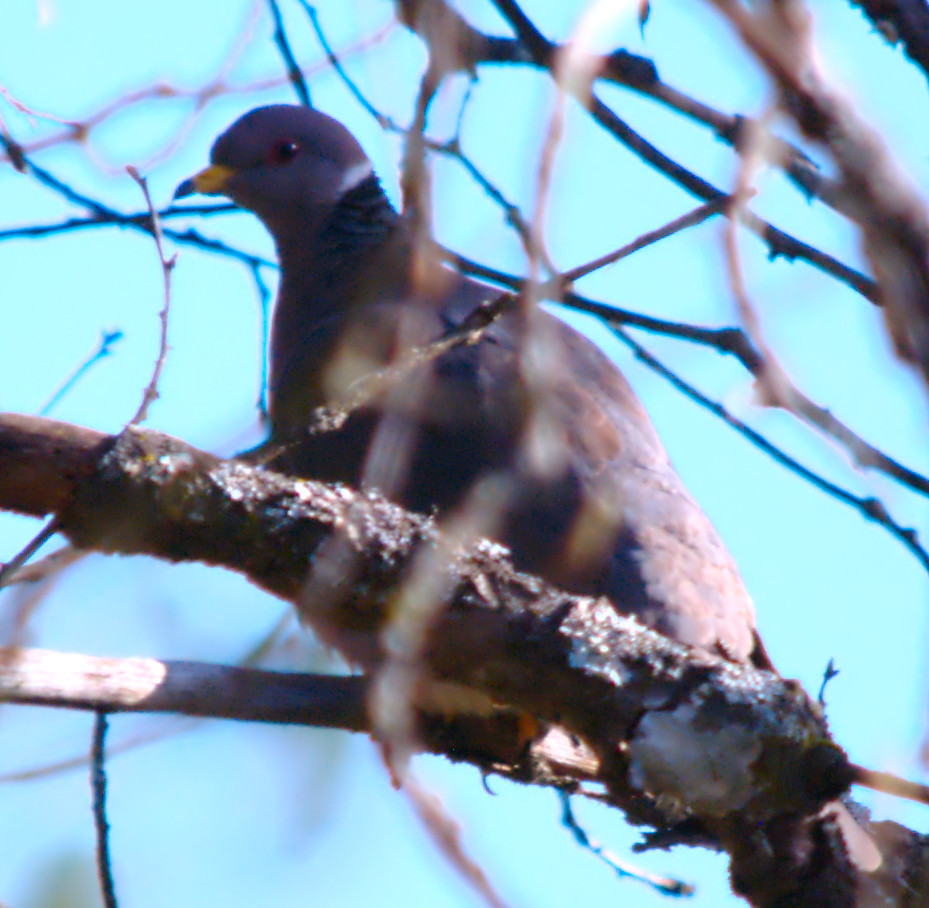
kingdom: Animalia
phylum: Chordata
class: Aves
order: Columbiformes
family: Columbidae
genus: Patagioenas
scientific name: Patagioenas fasciata
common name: Band-tailed pigeon
